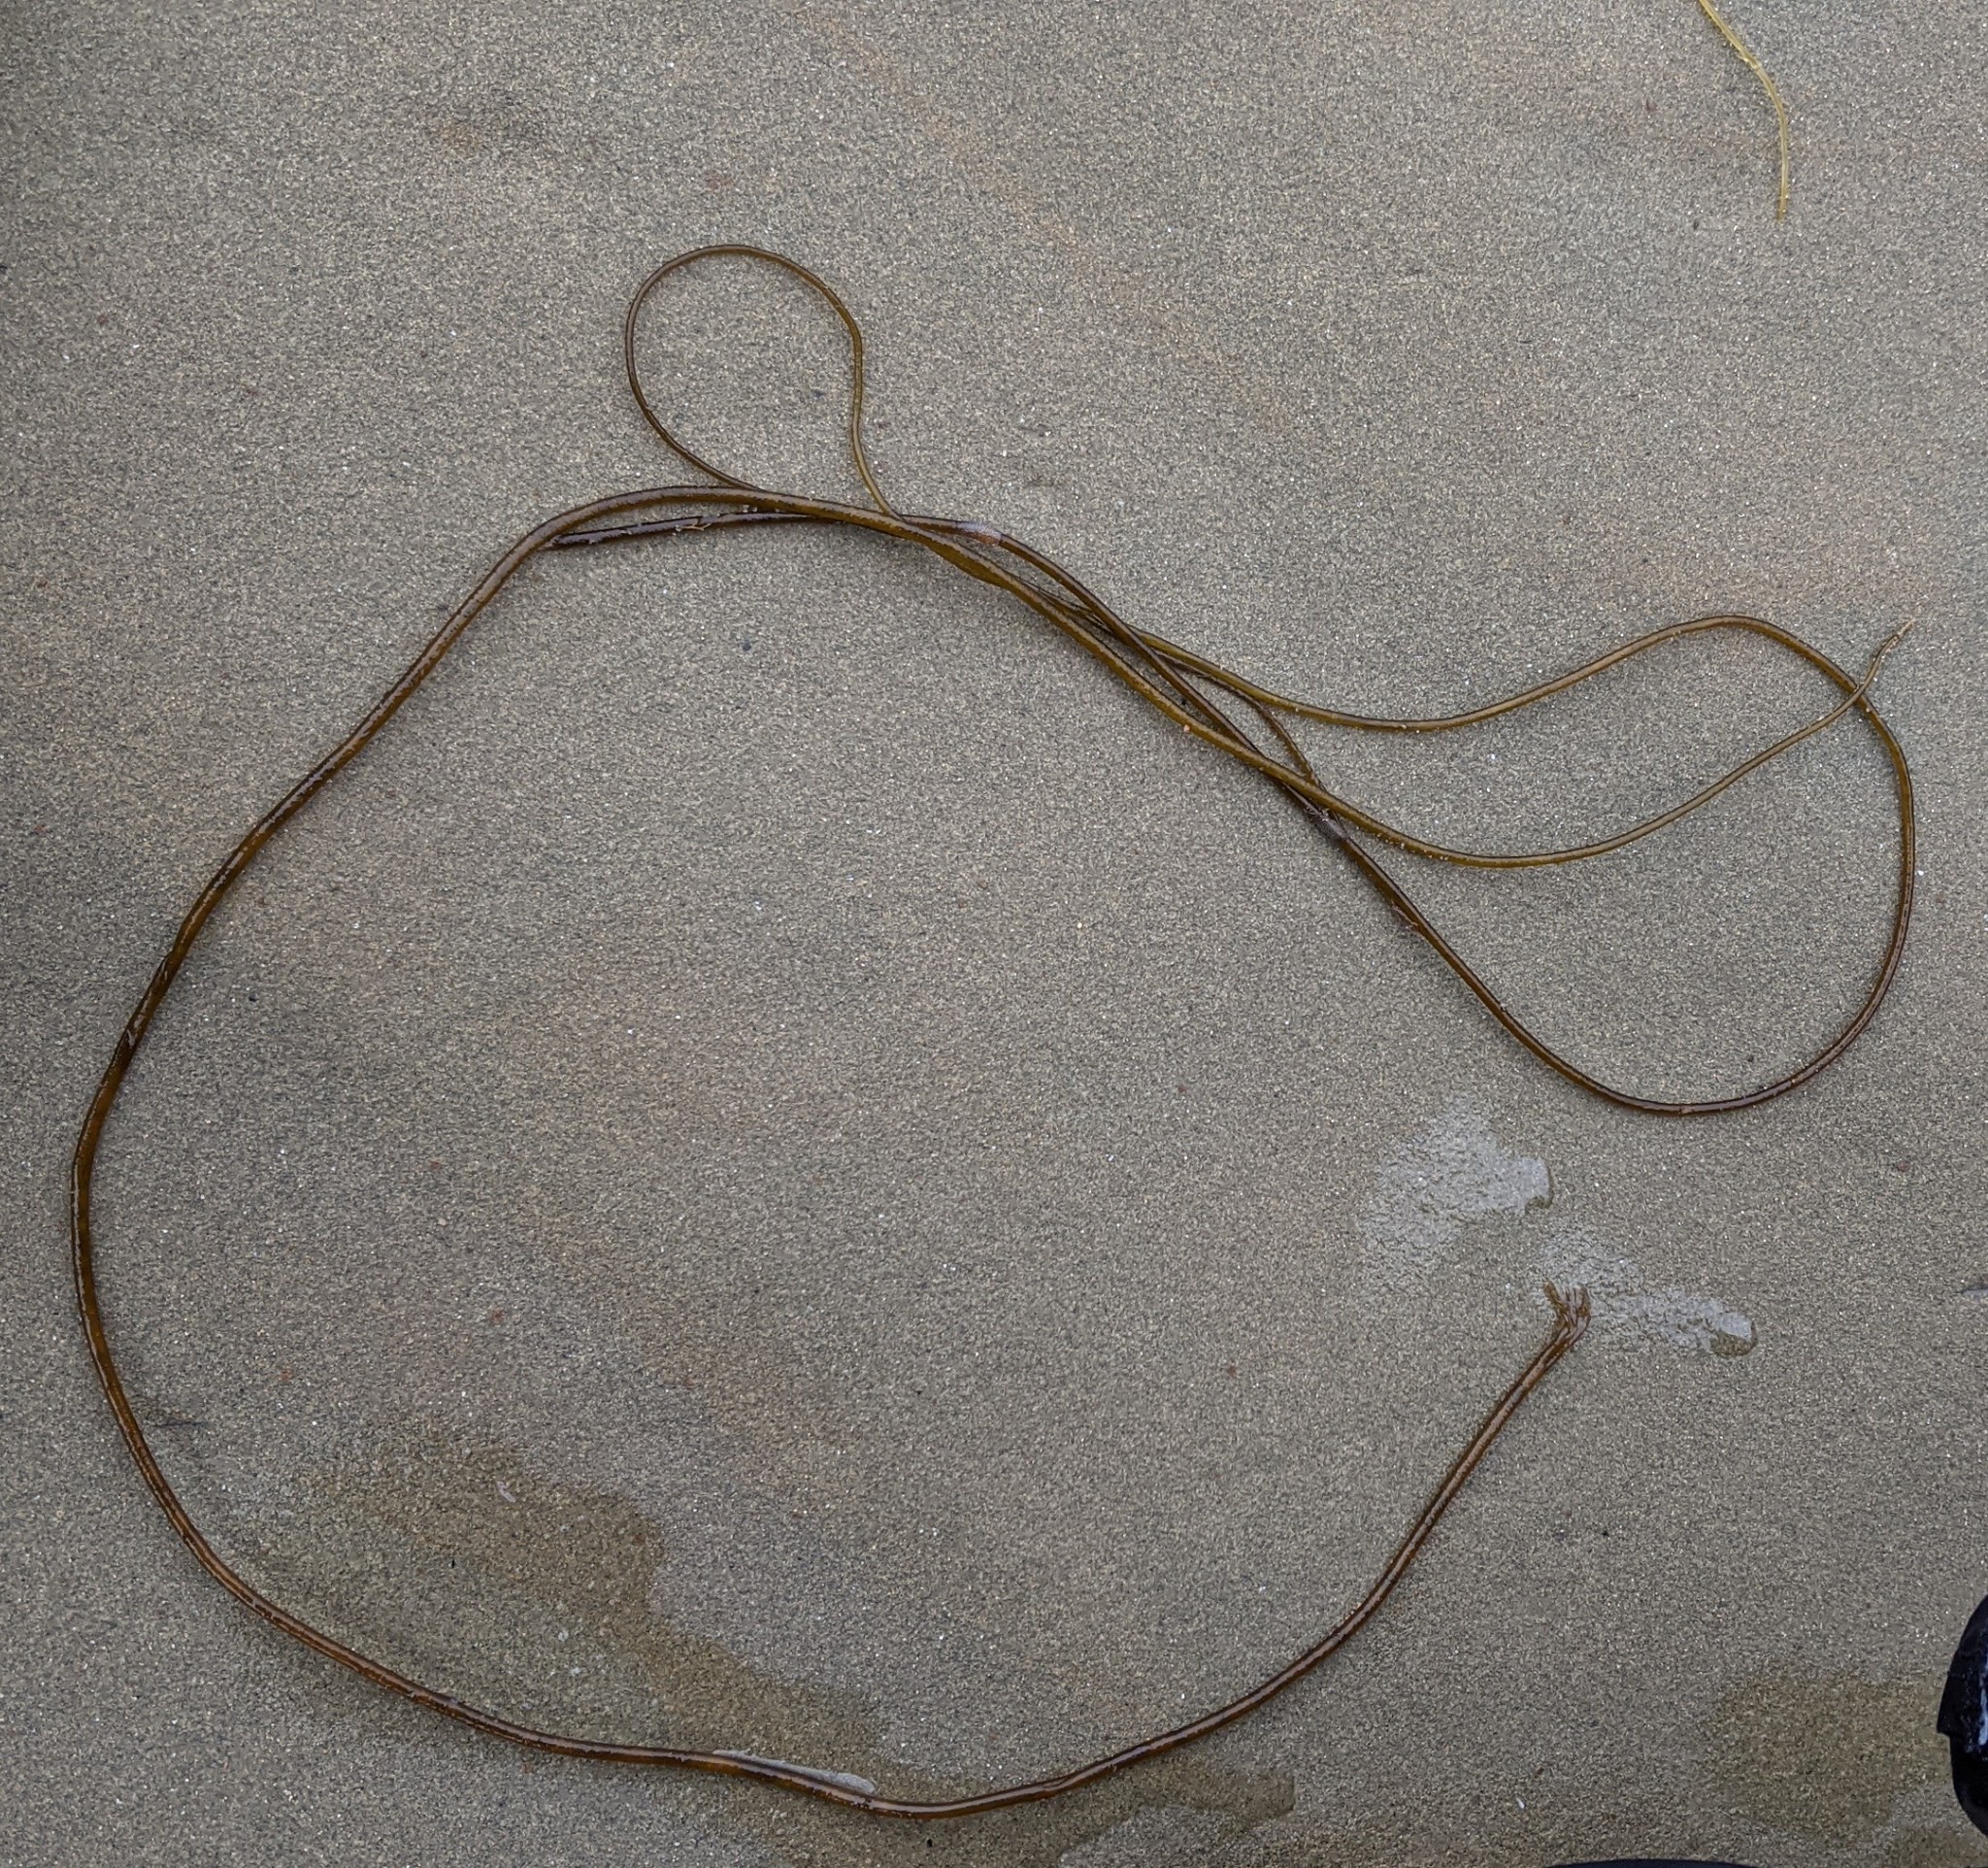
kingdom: Chromista
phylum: Ochrophyta
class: Phaeophyceae
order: Laminariales
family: Chordaceae
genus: Chorda
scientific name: Chorda filum
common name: Mermaid's tresses
